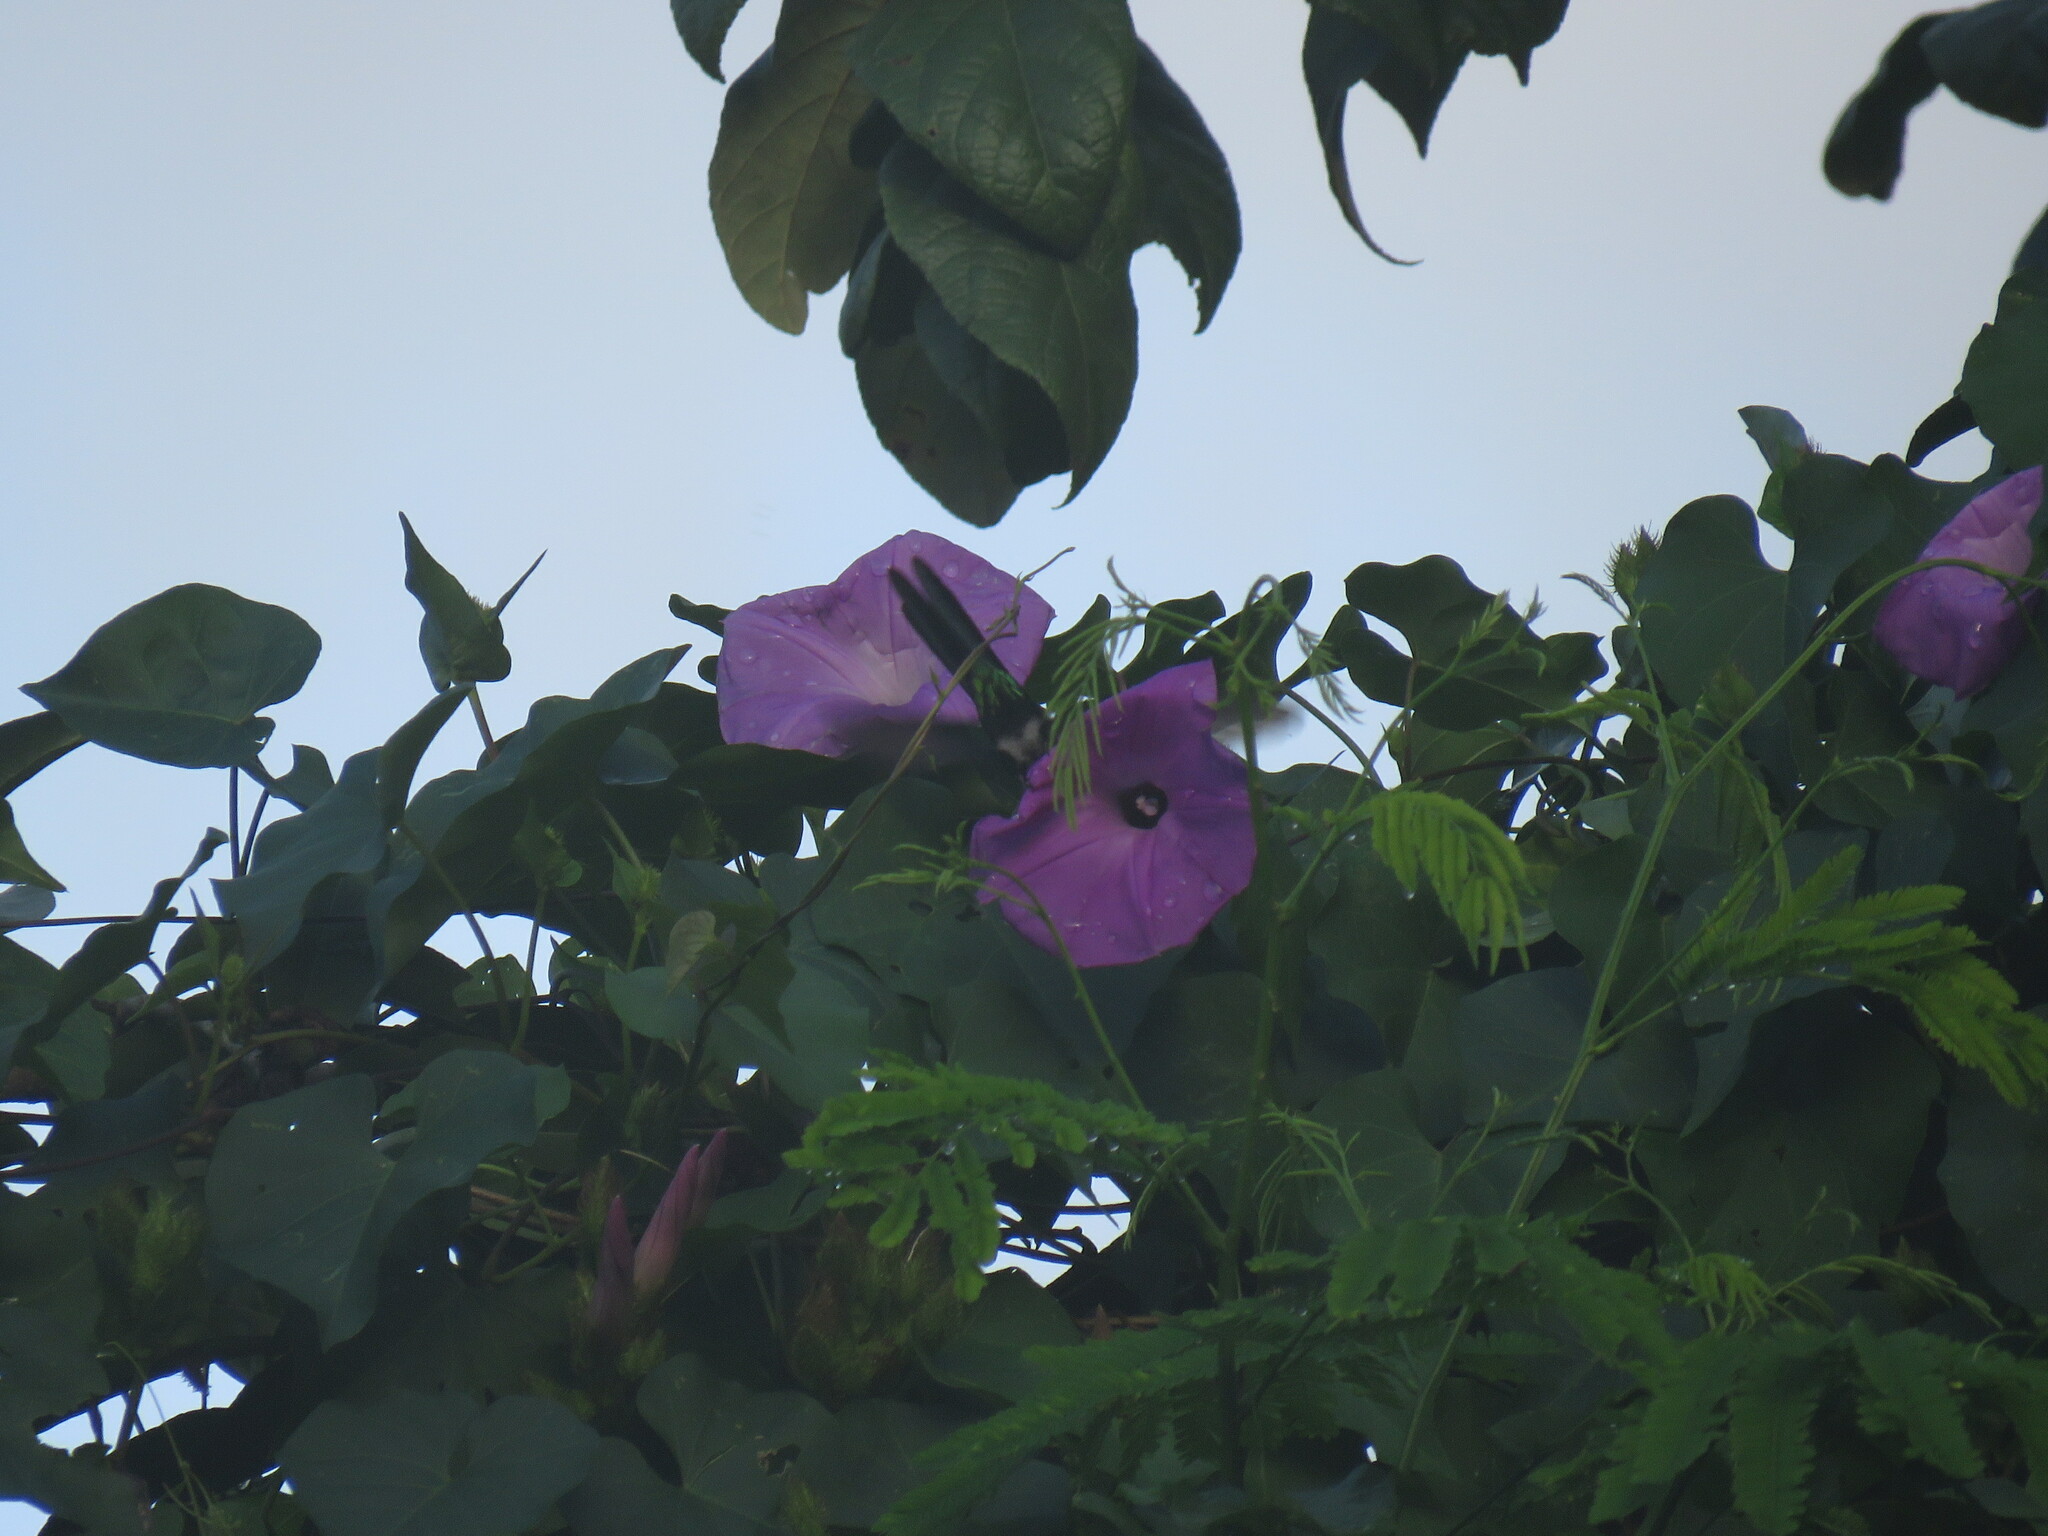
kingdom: Animalia
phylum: Chordata
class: Aves
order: Apodiformes
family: Trochilidae
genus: Cynanthus
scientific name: Cynanthus forficatus
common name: Cozumel emerald
